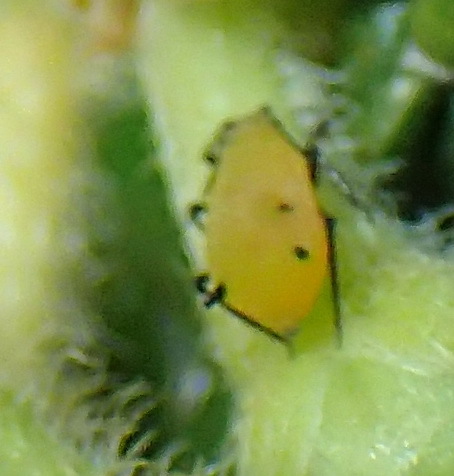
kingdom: Animalia
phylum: Arthropoda
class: Insecta
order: Hemiptera
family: Aphididae
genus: Aphis
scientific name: Aphis nerii
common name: Oleander aphid
